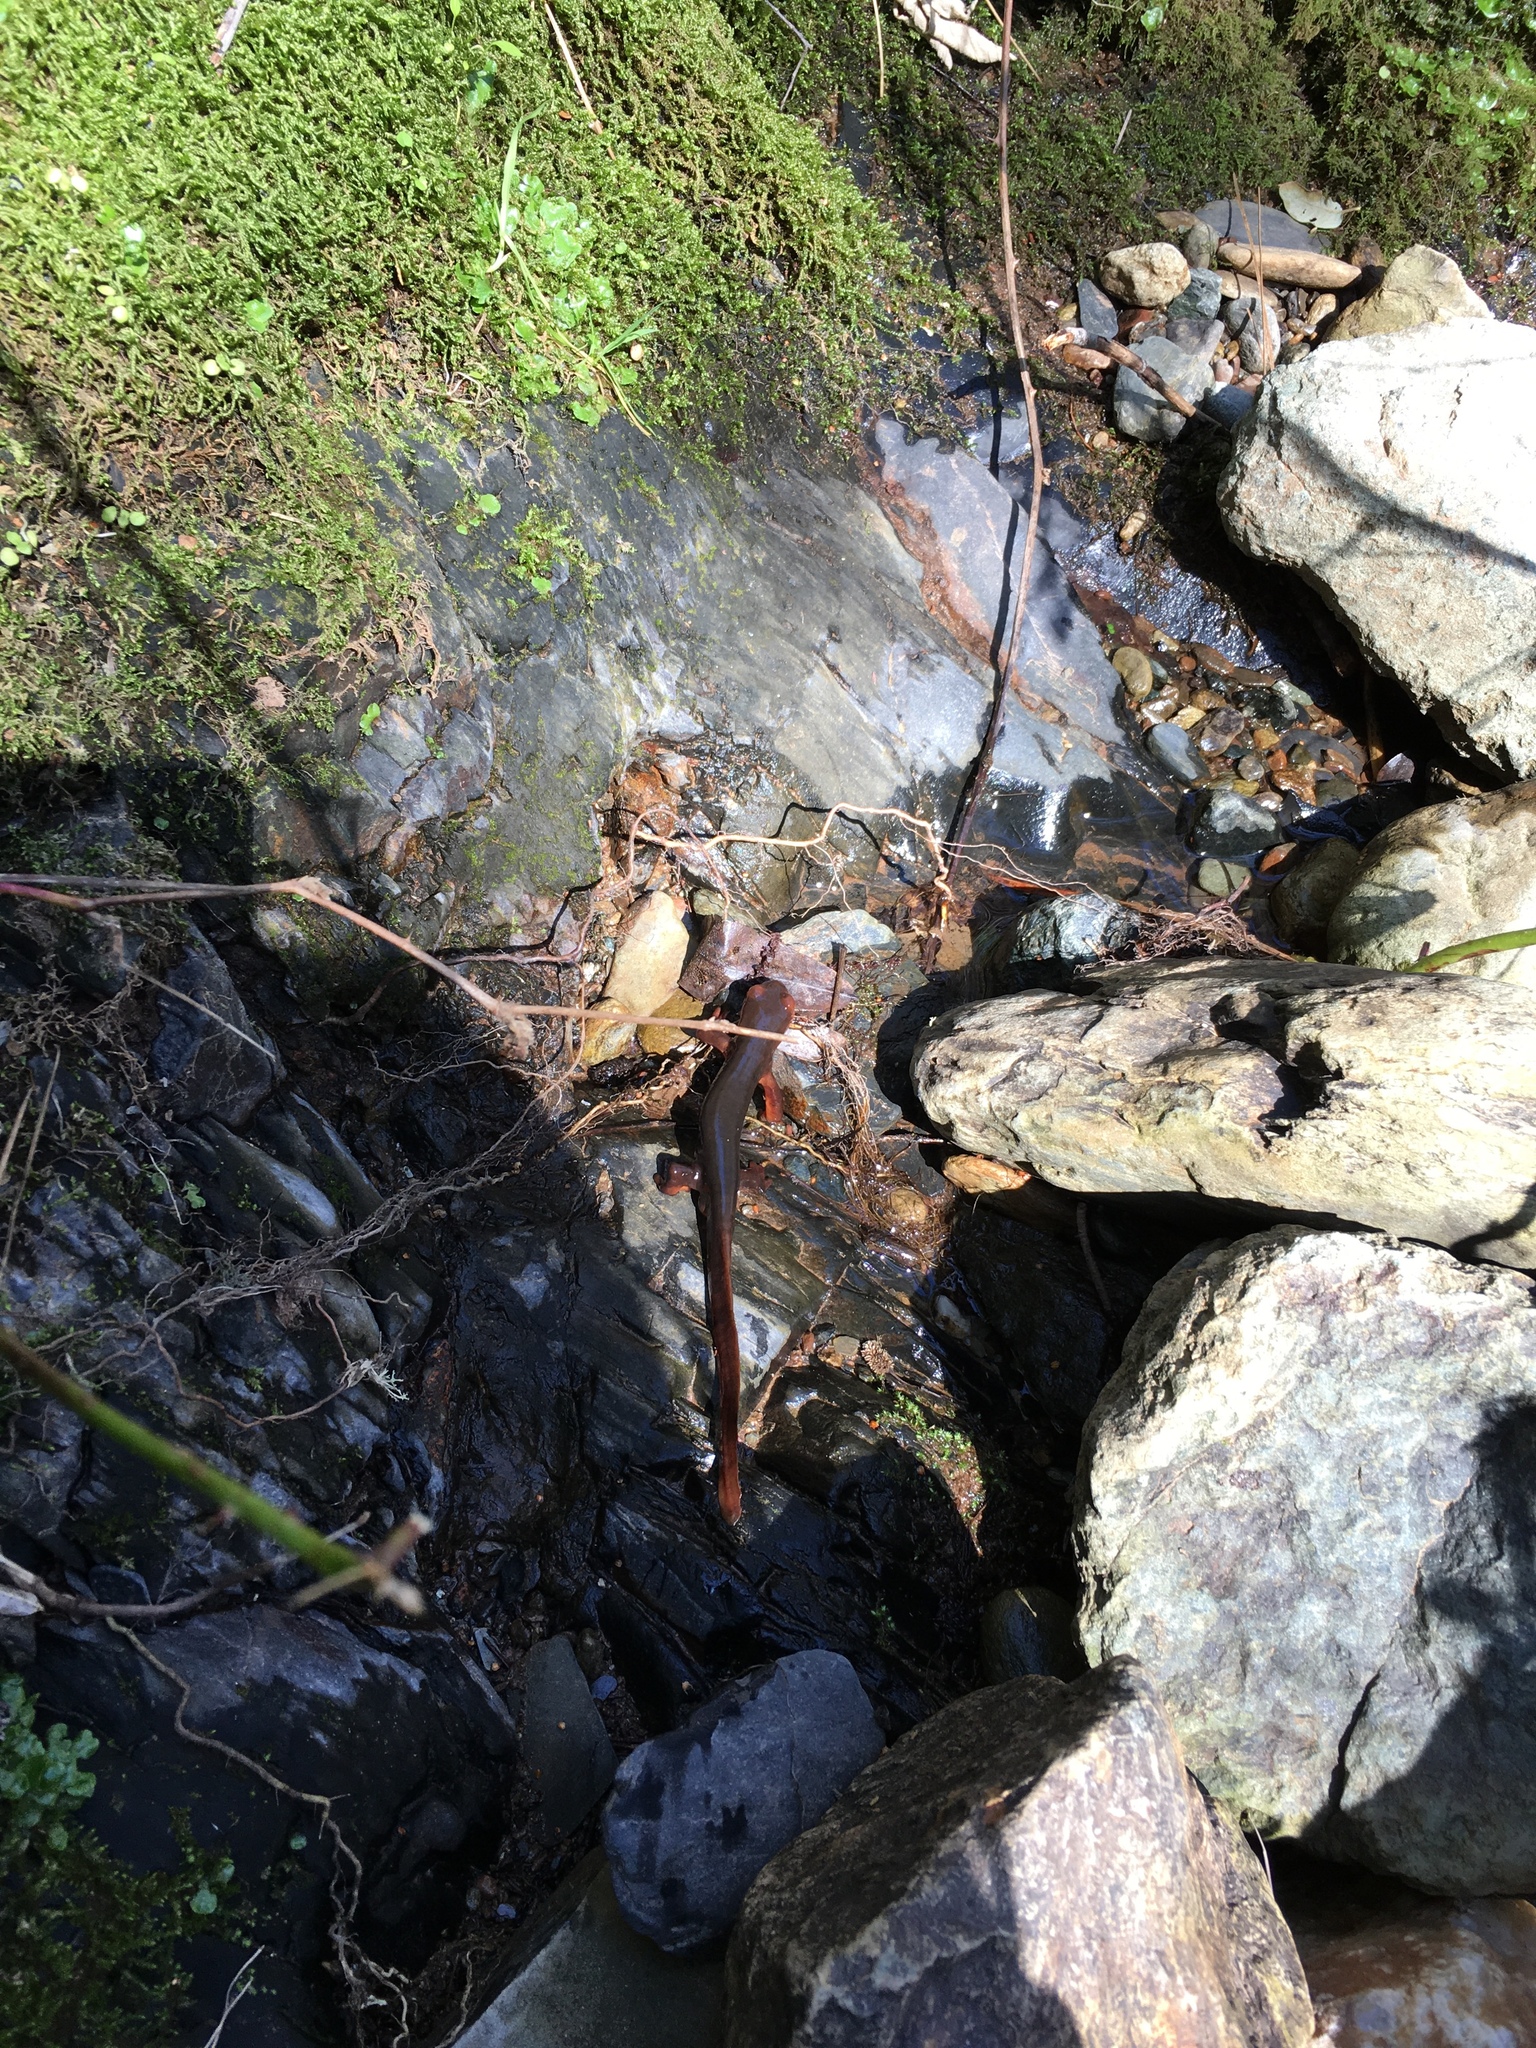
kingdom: Animalia
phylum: Chordata
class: Amphibia
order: Caudata
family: Salamandridae
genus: Taricha
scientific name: Taricha sierrae
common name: Sierra newt
